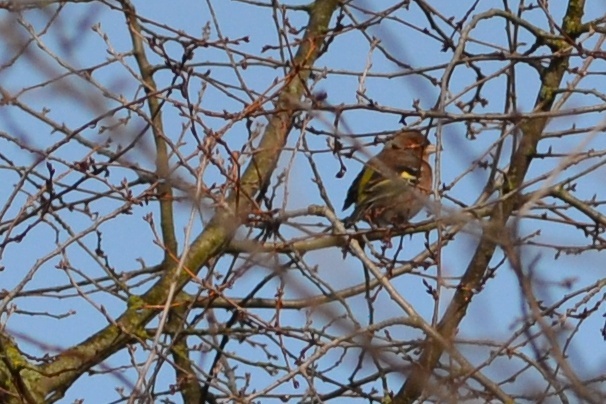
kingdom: Animalia
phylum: Chordata
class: Aves
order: Passeriformes
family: Fringillidae
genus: Fringilla
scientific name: Fringilla coelebs
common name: Common chaffinch
